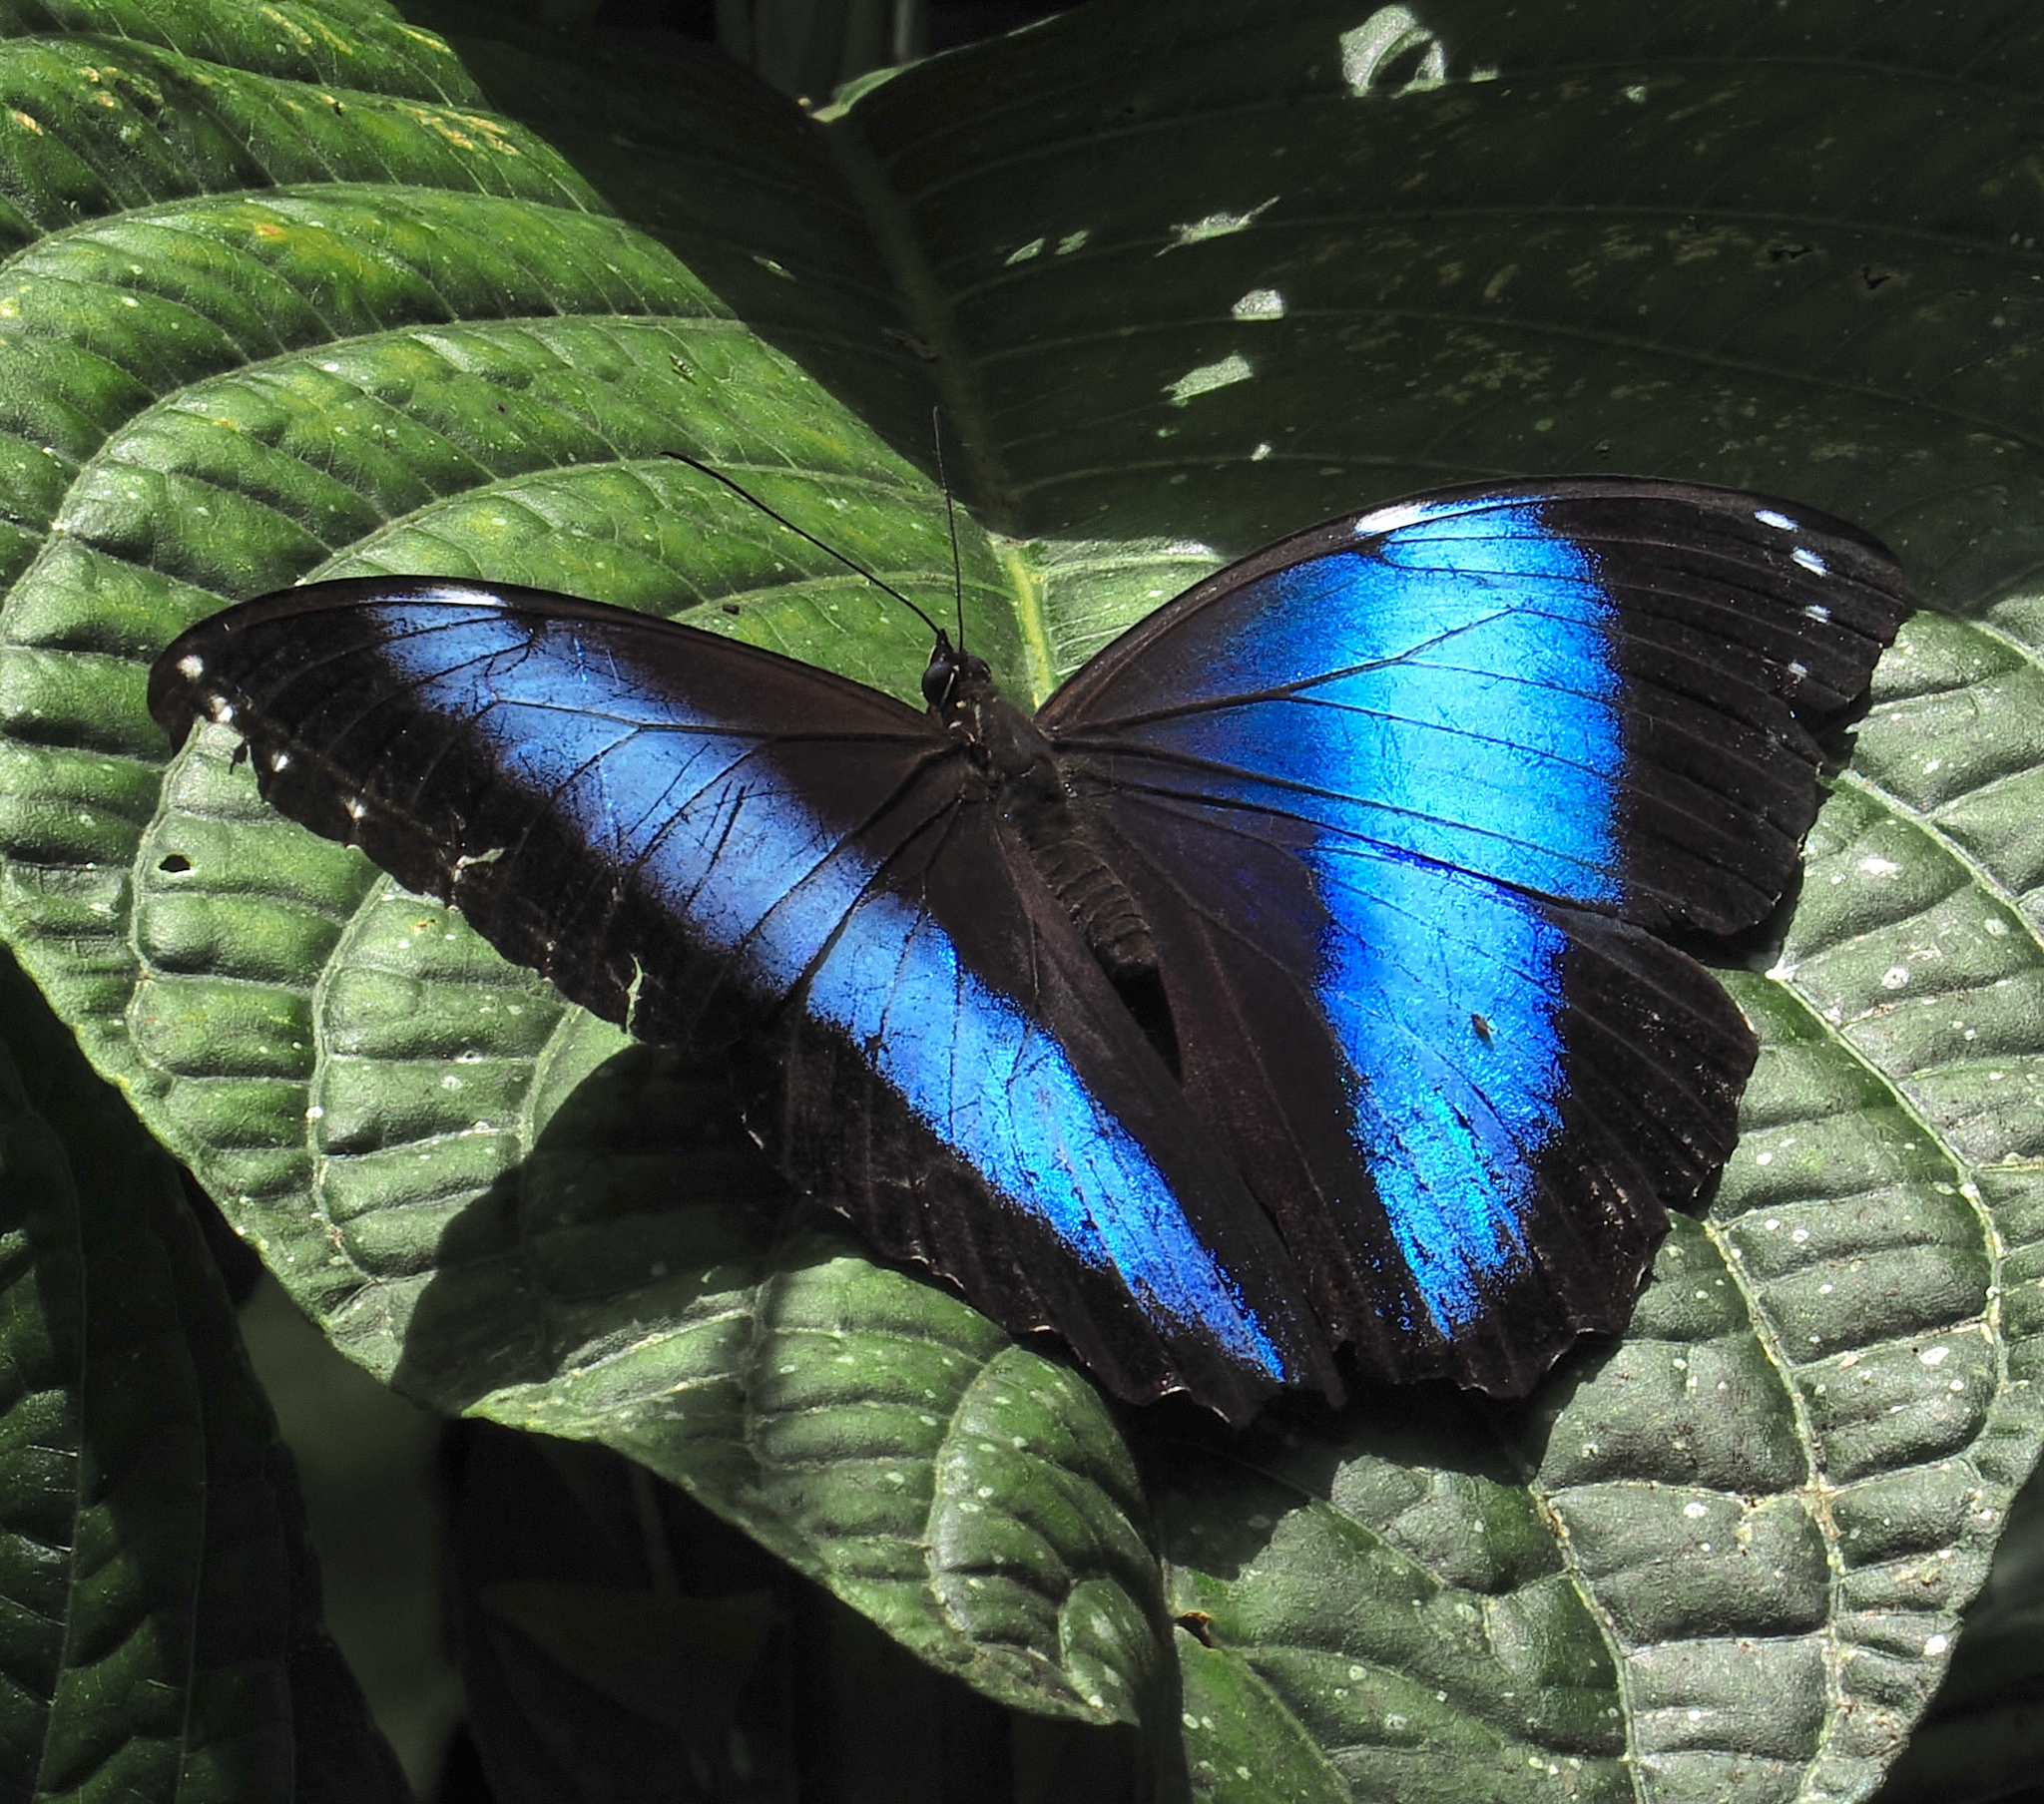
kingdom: Animalia
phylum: Arthropoda
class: Insecta
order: Lepidoptera
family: Nymphalidae
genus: Morpho
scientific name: Morpho helenor
